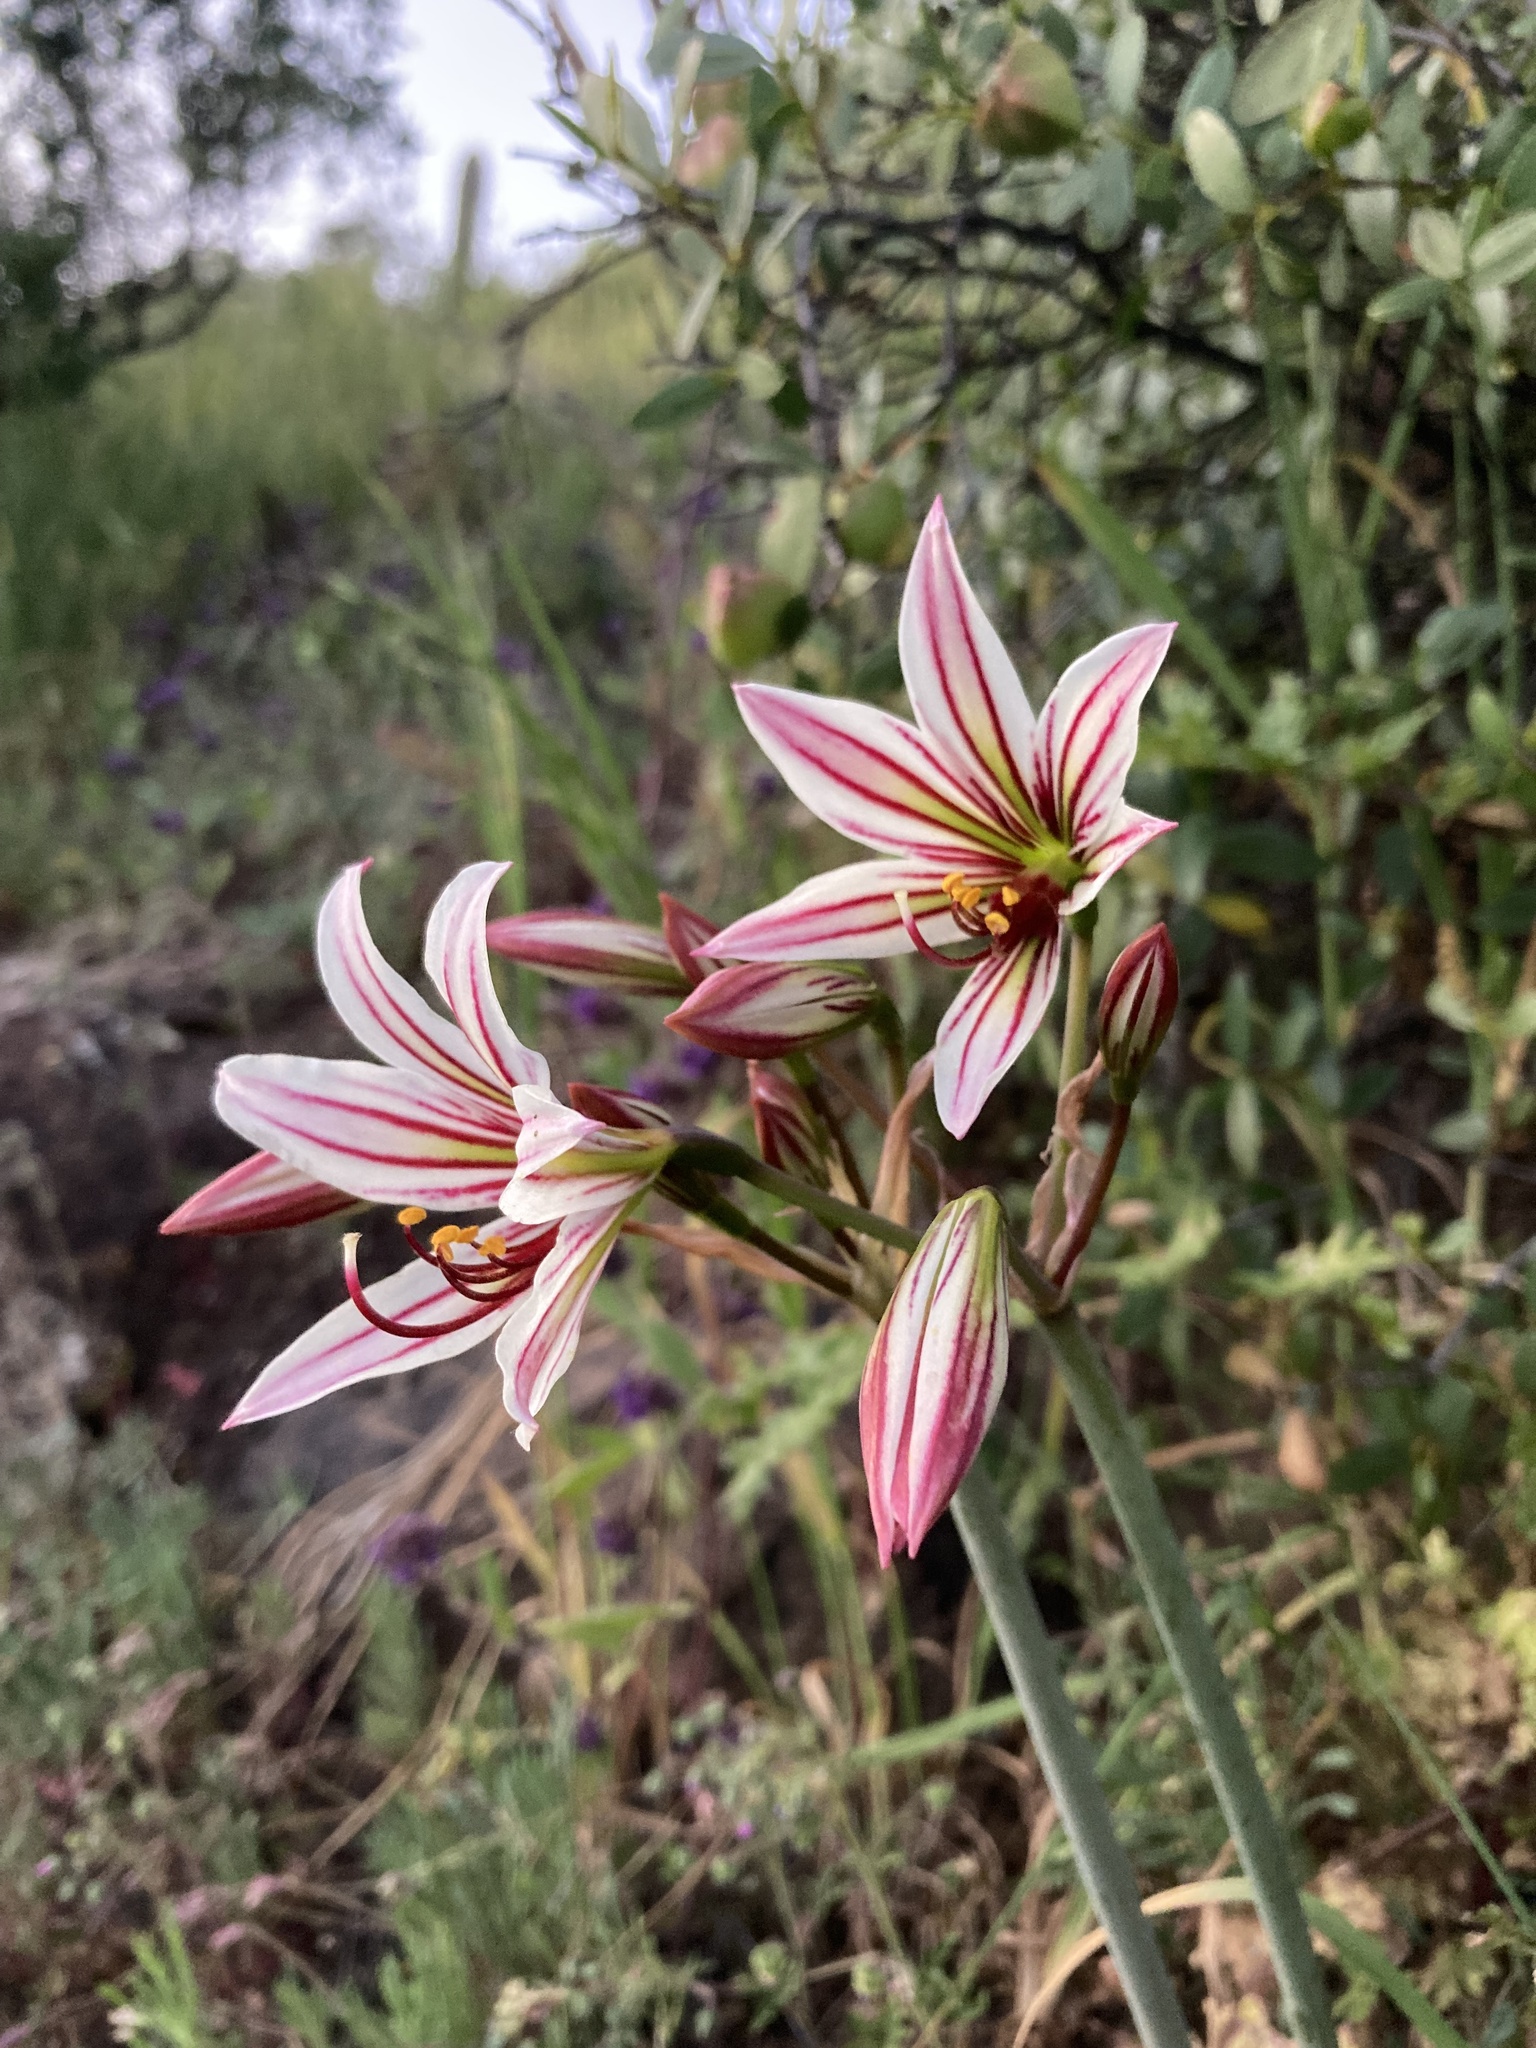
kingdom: Plantae
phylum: Tracheophyta
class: Liliopsida
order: Asparagales
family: Amaryllidaceae
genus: Phycella
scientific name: Phycella arzae
